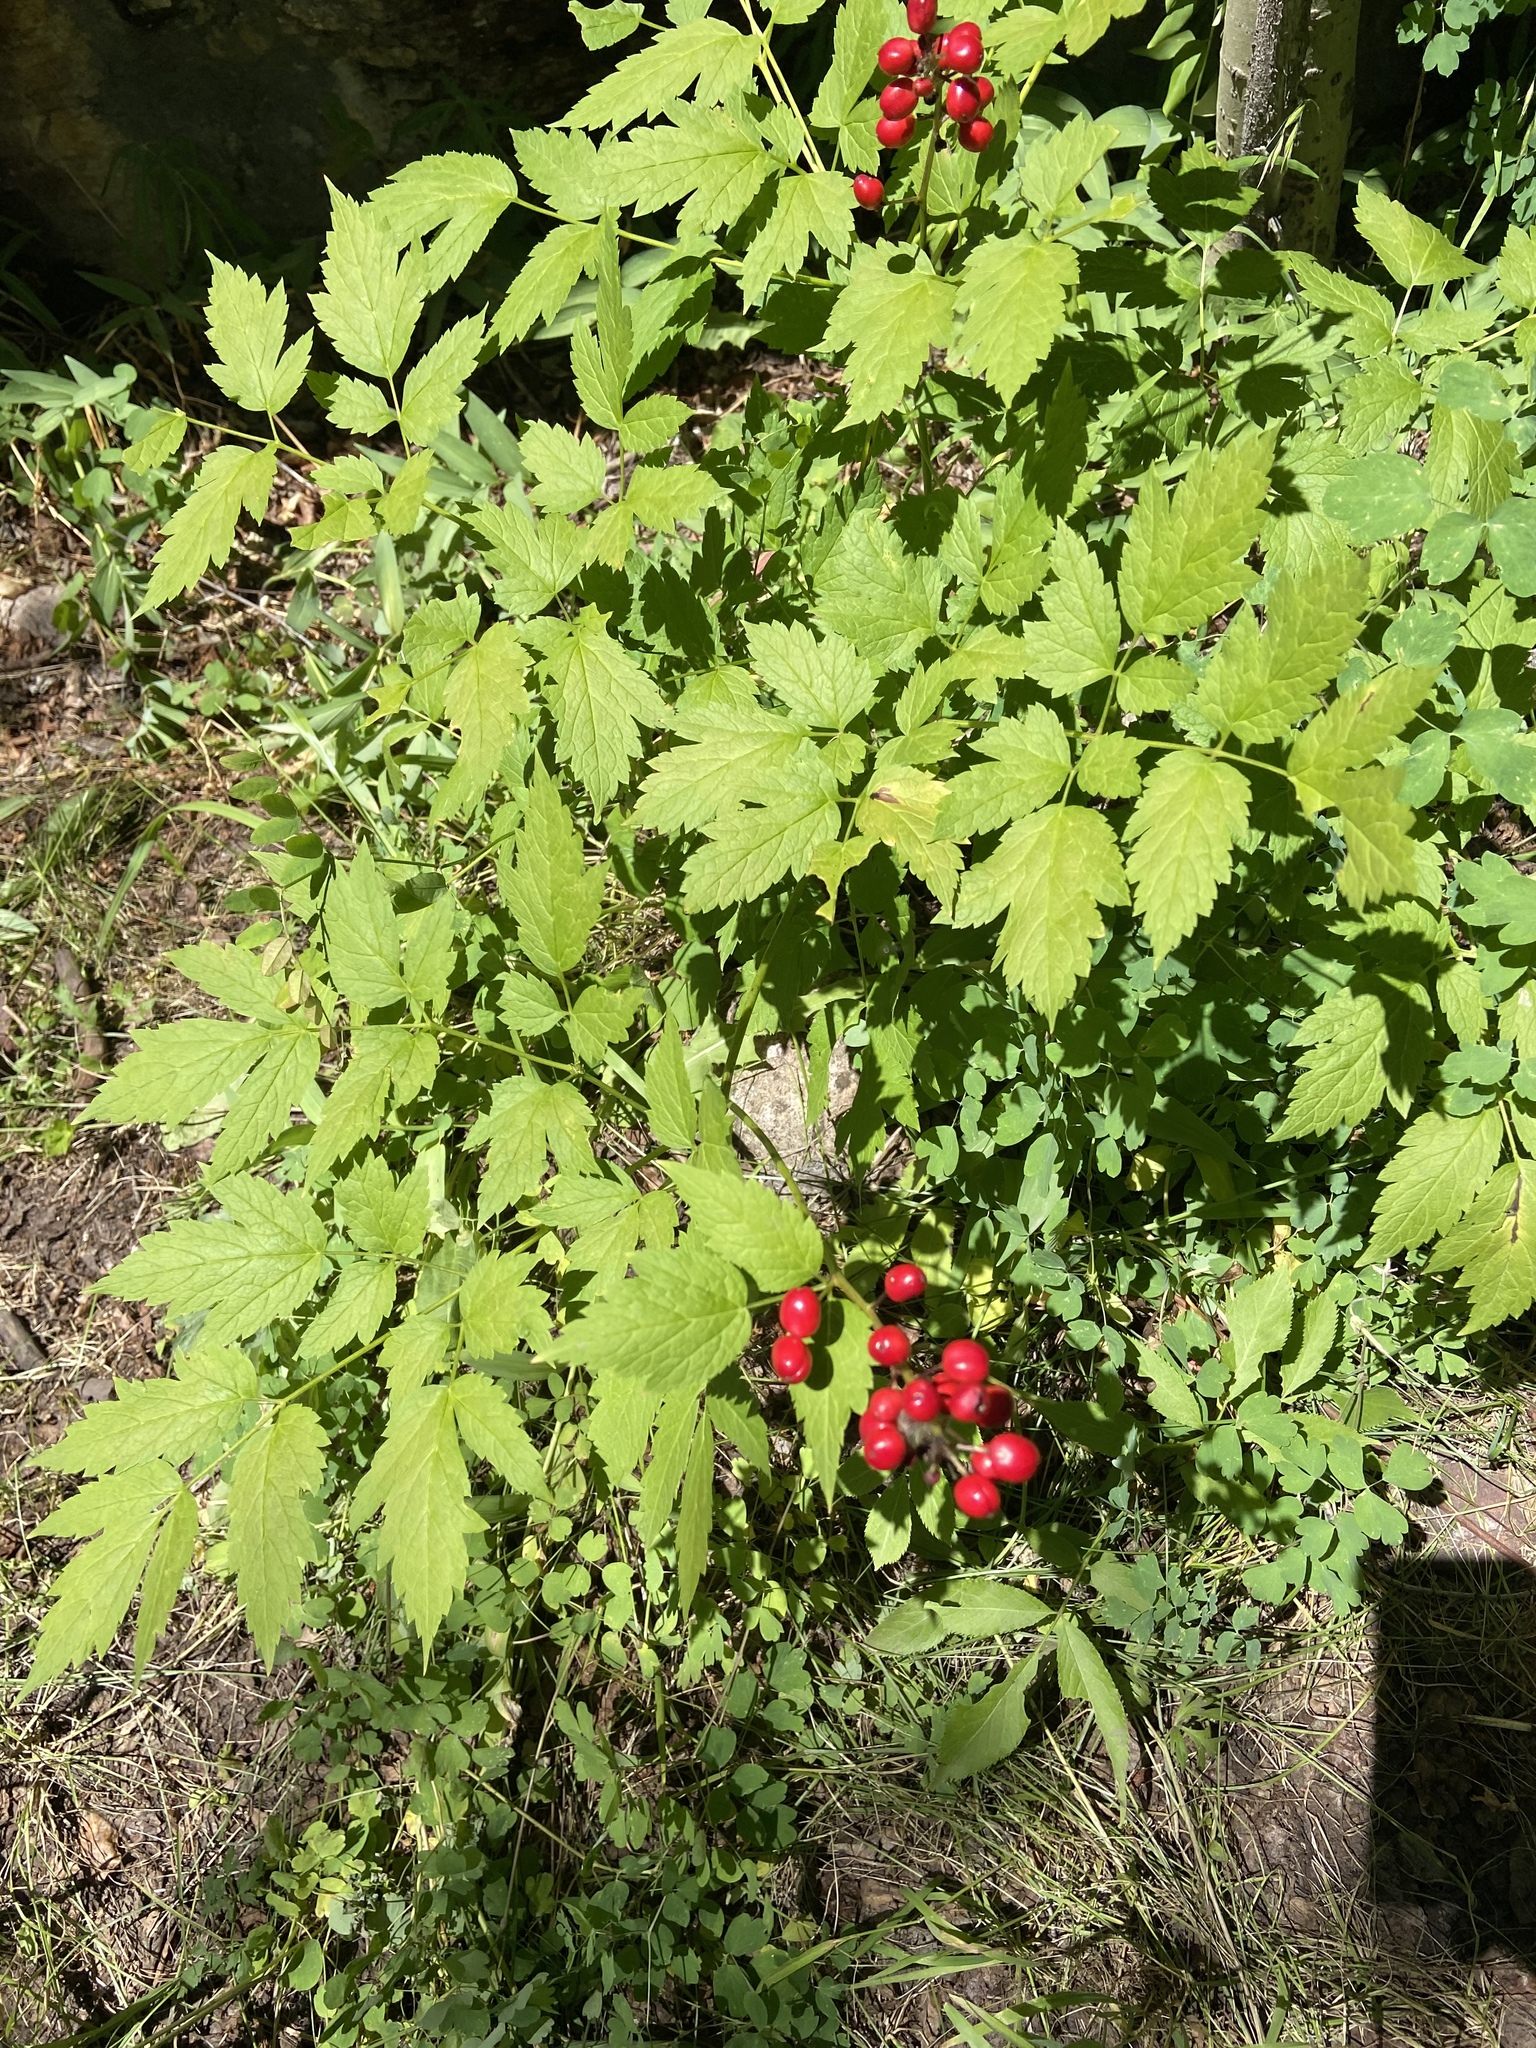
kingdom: Plantae
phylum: Tracheophyta
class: Magnoliopsida
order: Ranunculales
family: Ranunculaceae
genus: Actaea
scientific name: Actaea rubra
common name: Red baneberry
